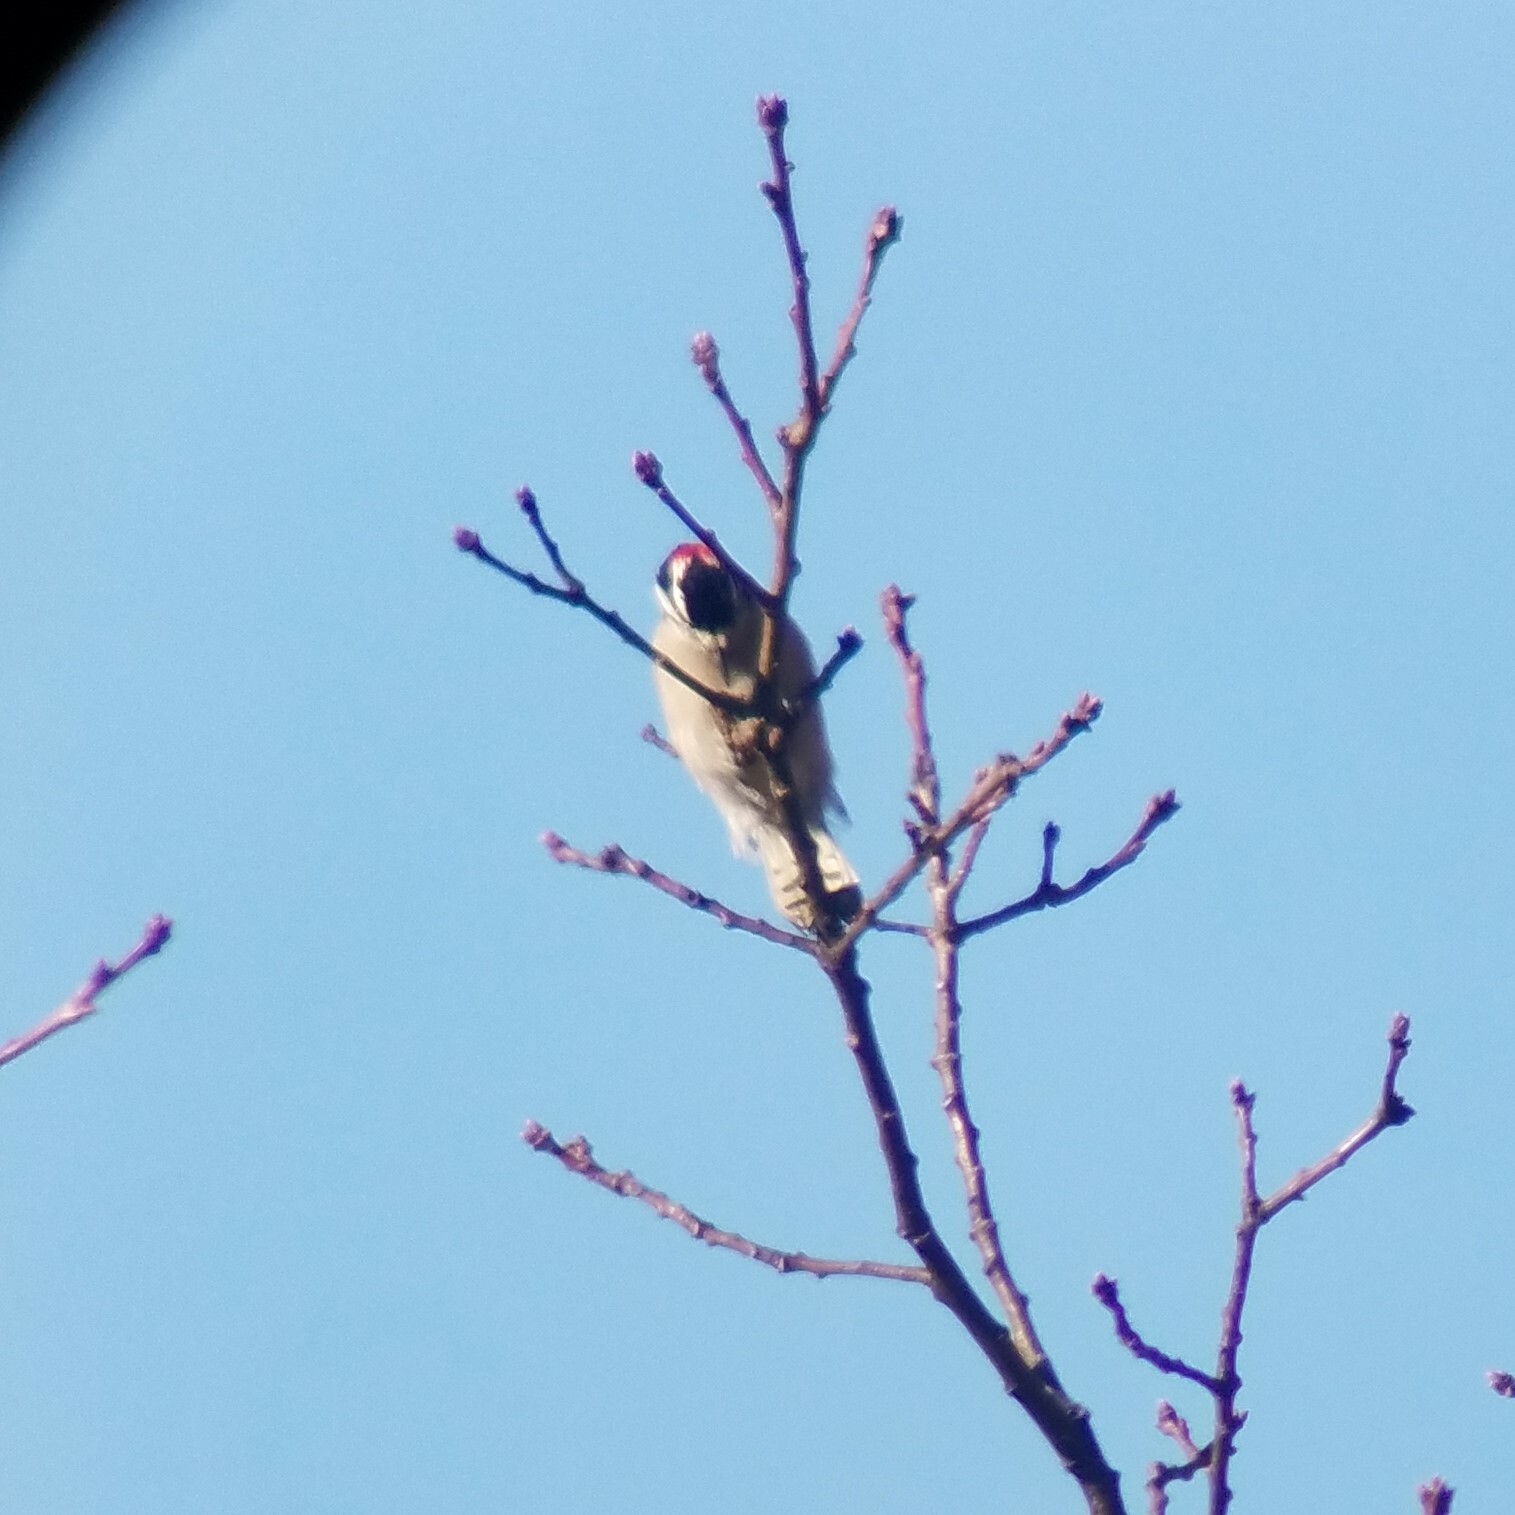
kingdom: Animalia
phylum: Chordata
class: Aves
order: Piciformes
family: Picidae
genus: Dryobates
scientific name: Dryobates pubescens
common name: Downy woodpecker
